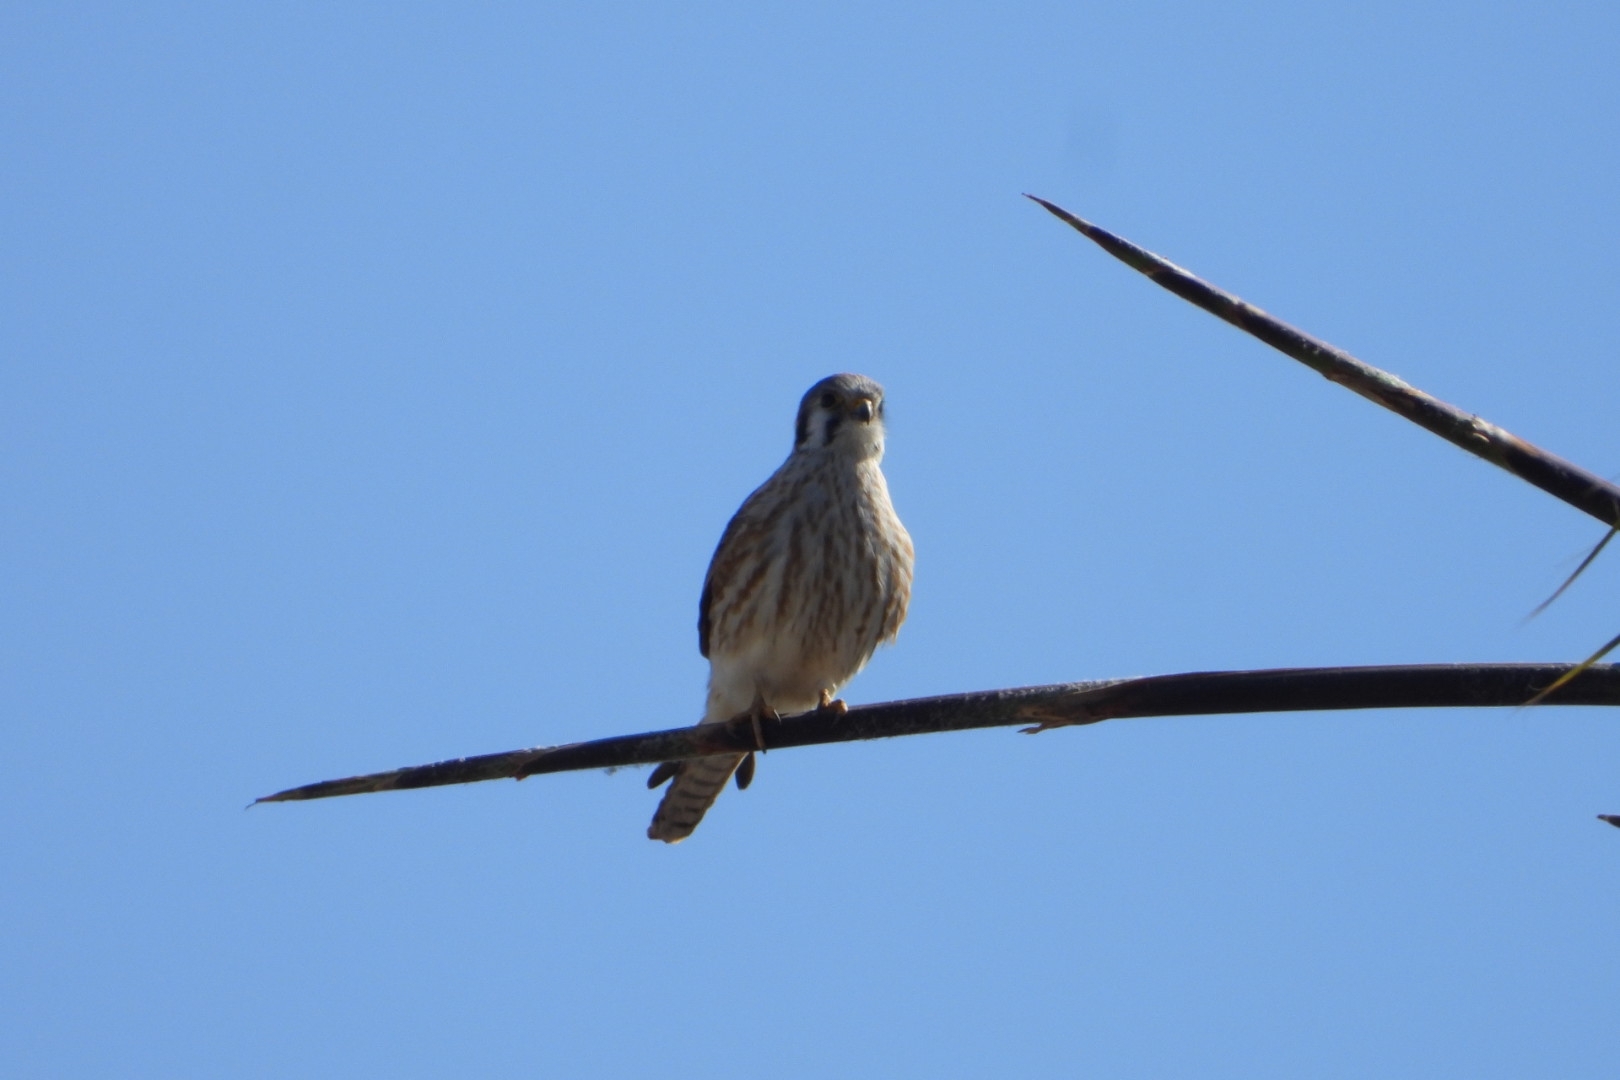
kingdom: Animalia
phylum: Chordata
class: Aves
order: Falconiformes
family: Falconidae
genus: Falco
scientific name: Falco sparverius
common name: American kestrel
